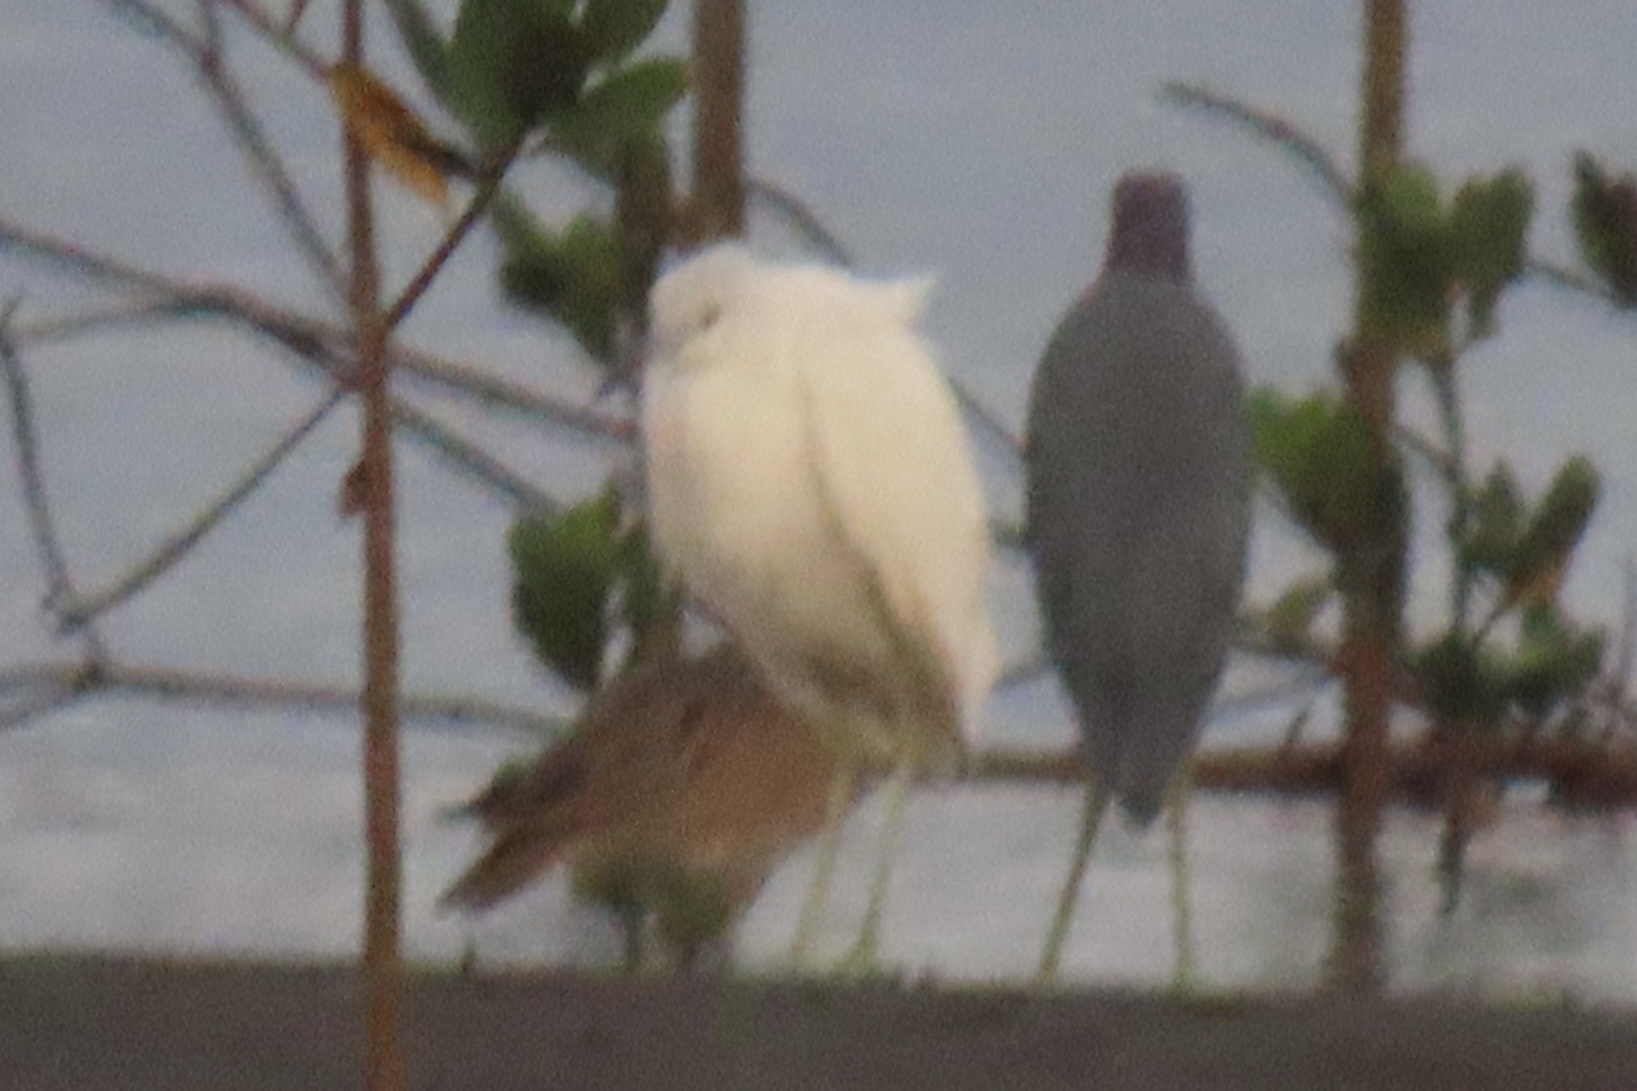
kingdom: Animalia
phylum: Chordata
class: Aves
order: Pelecaniformes
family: Ardeidae
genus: Egretta
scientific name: Egretta thula
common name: Snowy egret
